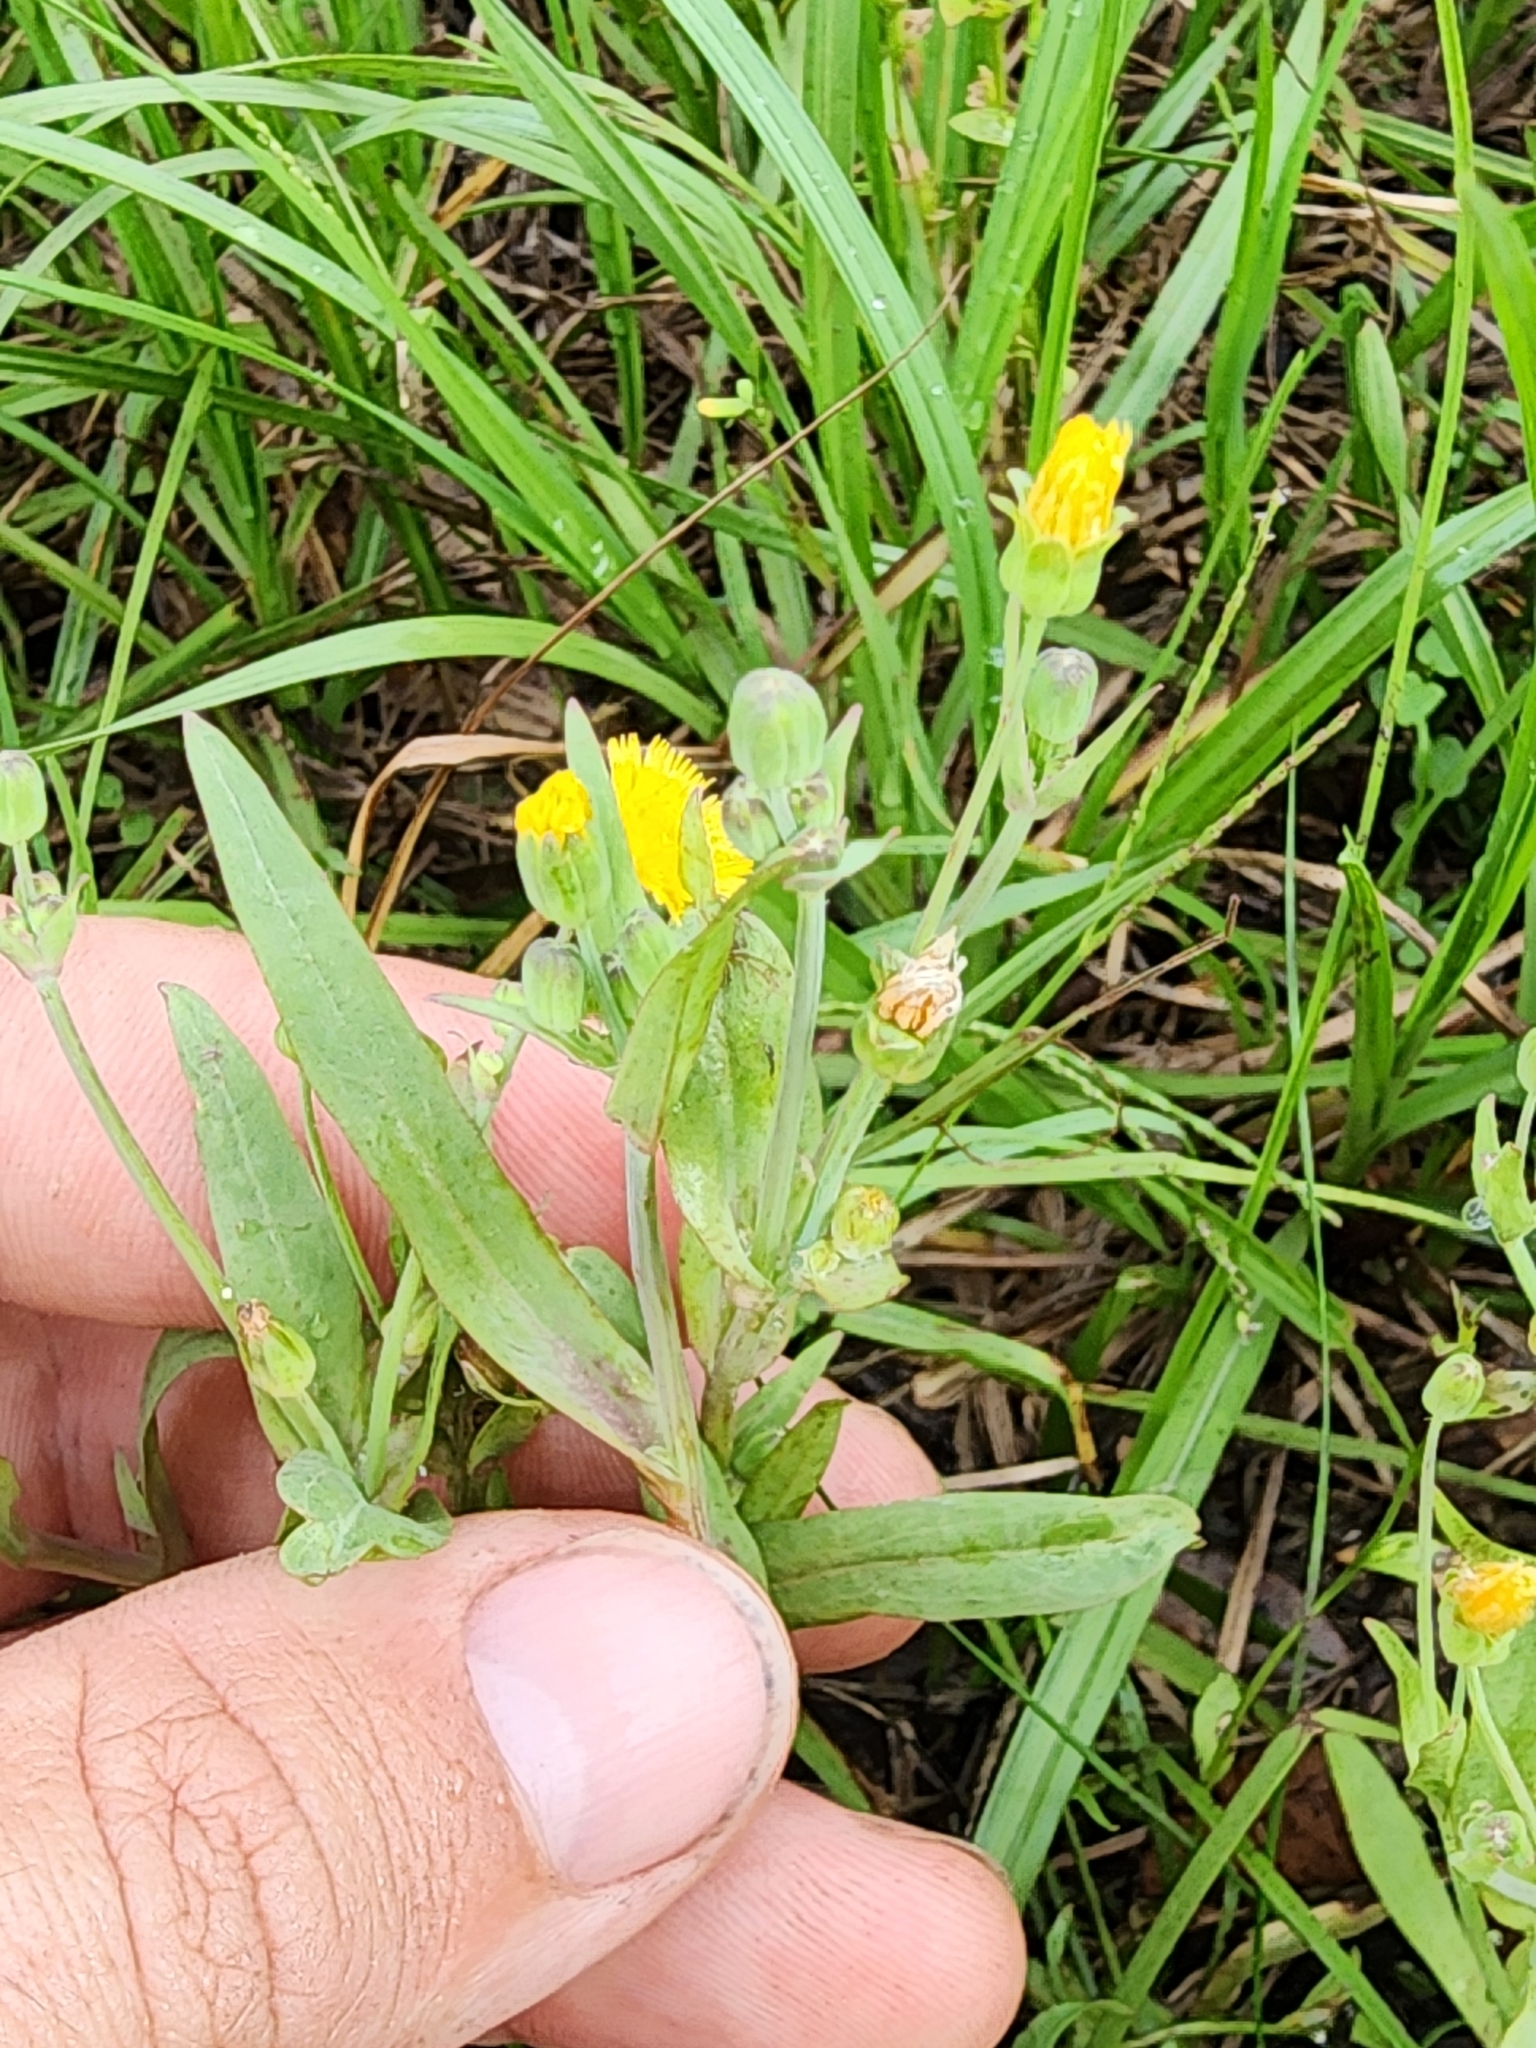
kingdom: Plantae
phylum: Tracheophyta
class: Magnoliopsida
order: Asterales
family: Asteraceae
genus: Krigia
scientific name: Krigia cespitosa
